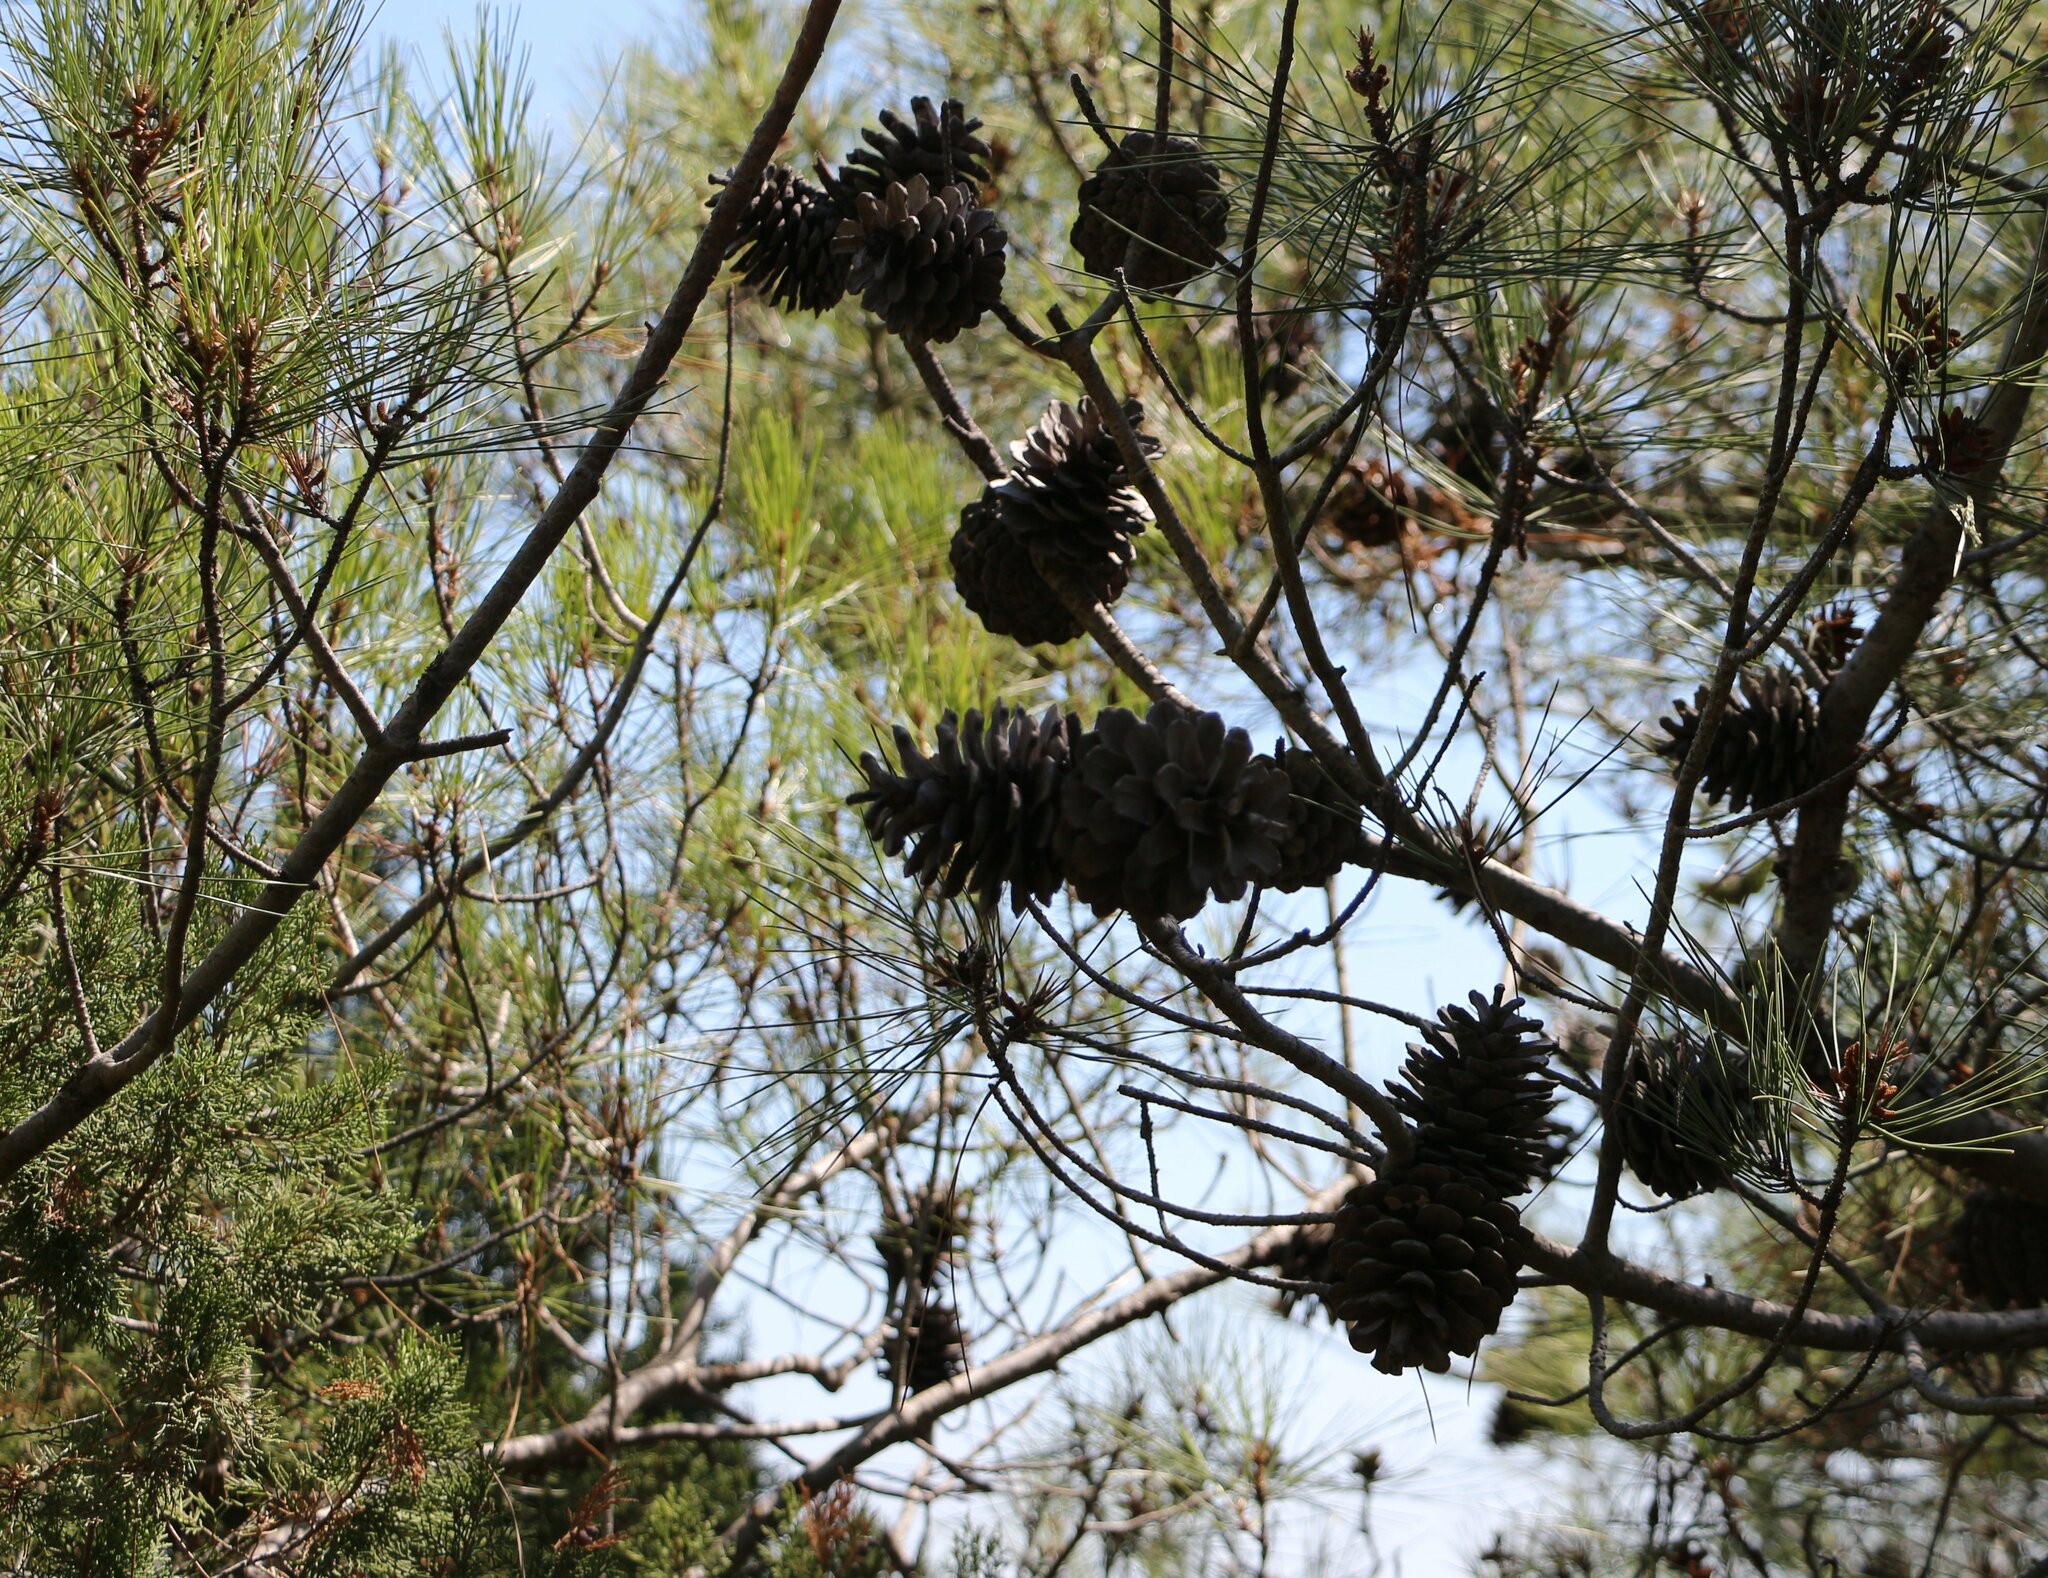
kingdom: Plantae
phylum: Tracheophyta
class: Pinopsida
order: Pinales
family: Pinaceae
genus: Pinus
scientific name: Pinus brutia
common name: Turkish pine
